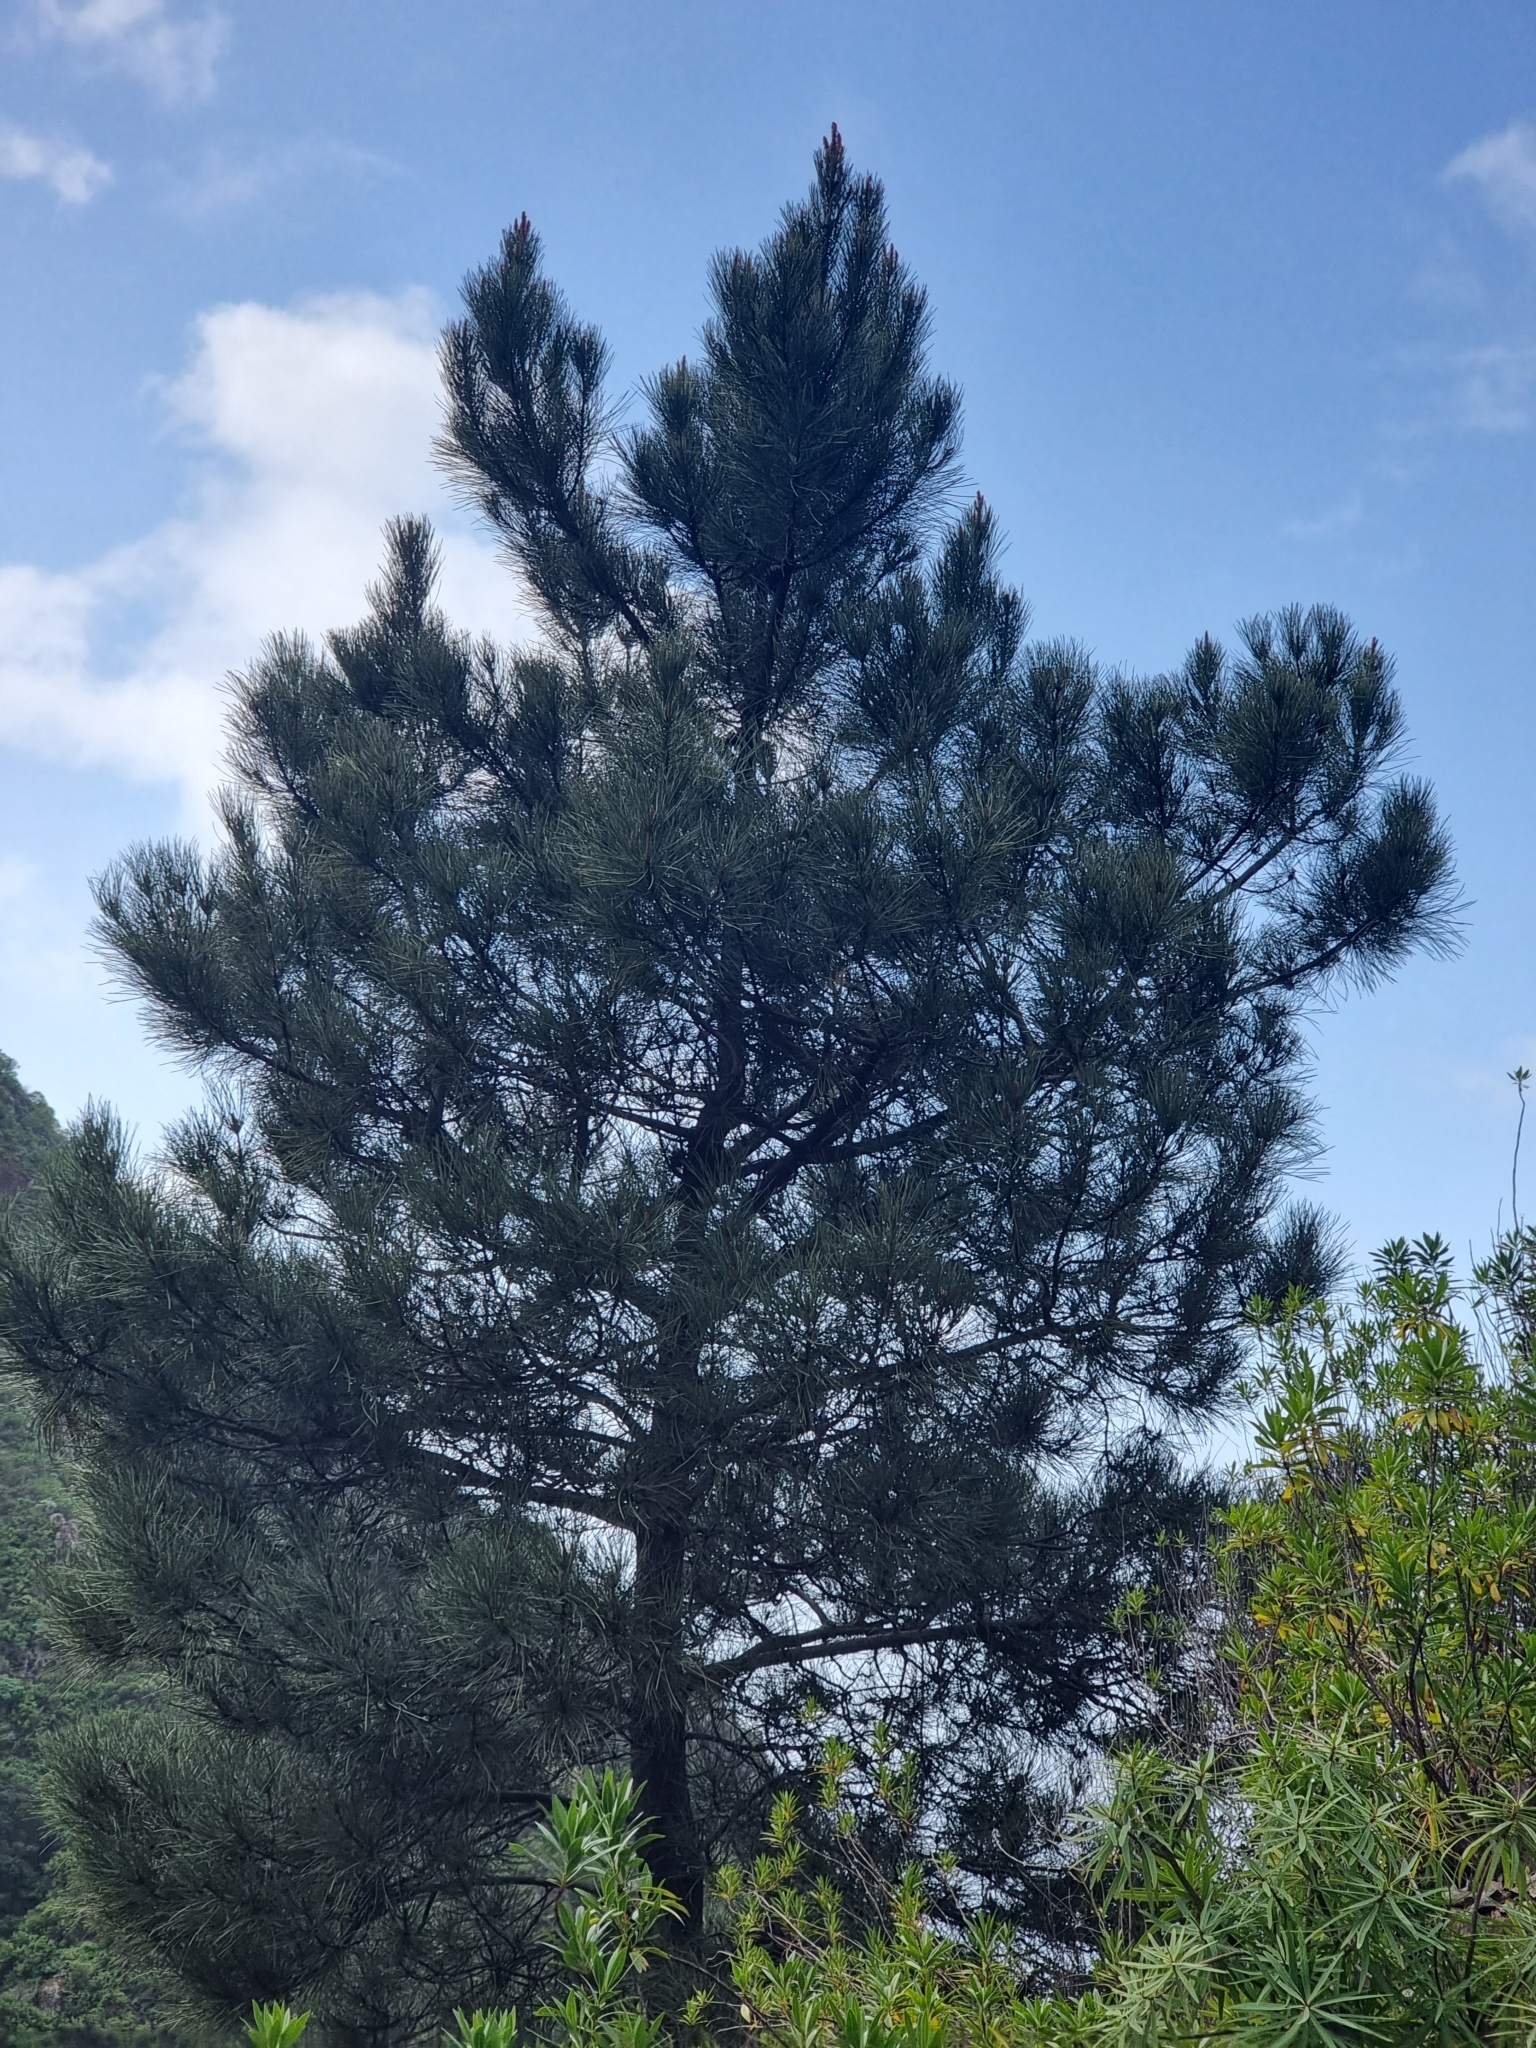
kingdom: Plantae
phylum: Tracheophyta
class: Pinopsida
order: Pinales
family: Pinaceae
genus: Pinus
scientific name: Pinus pinaster
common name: Maritime pine
